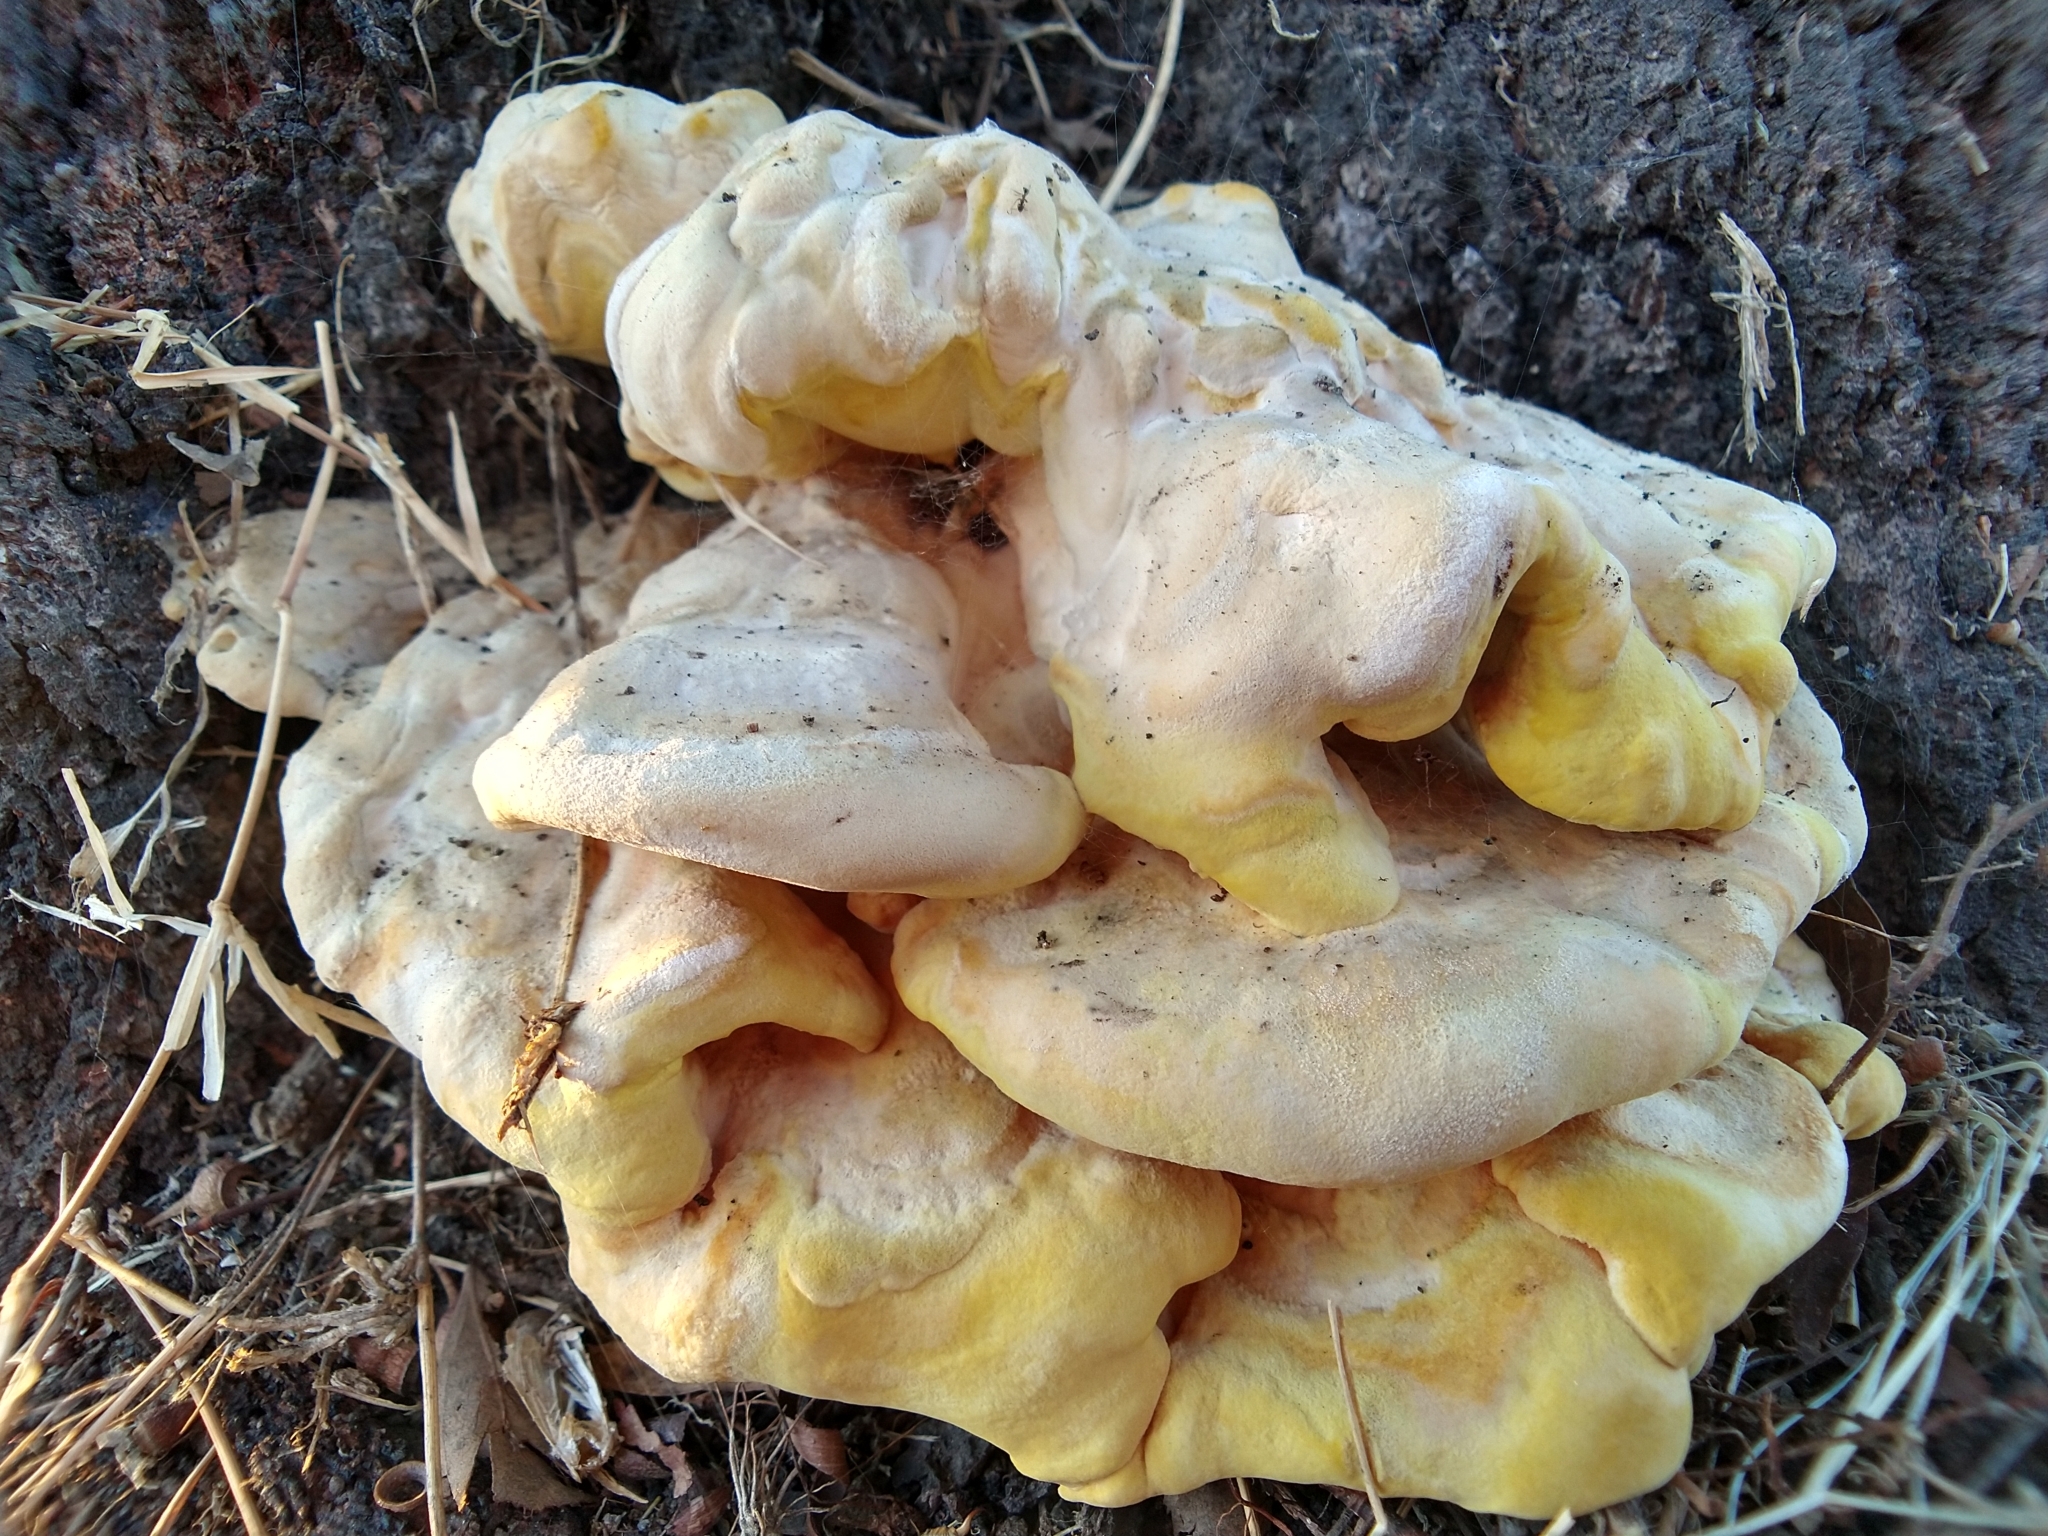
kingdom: Fungi
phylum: Basidiomycota
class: Agaricomycetes
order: Polyporales
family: Laetiporaceae
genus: Laetiporus
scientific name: Laetiporus gilbertsonii
